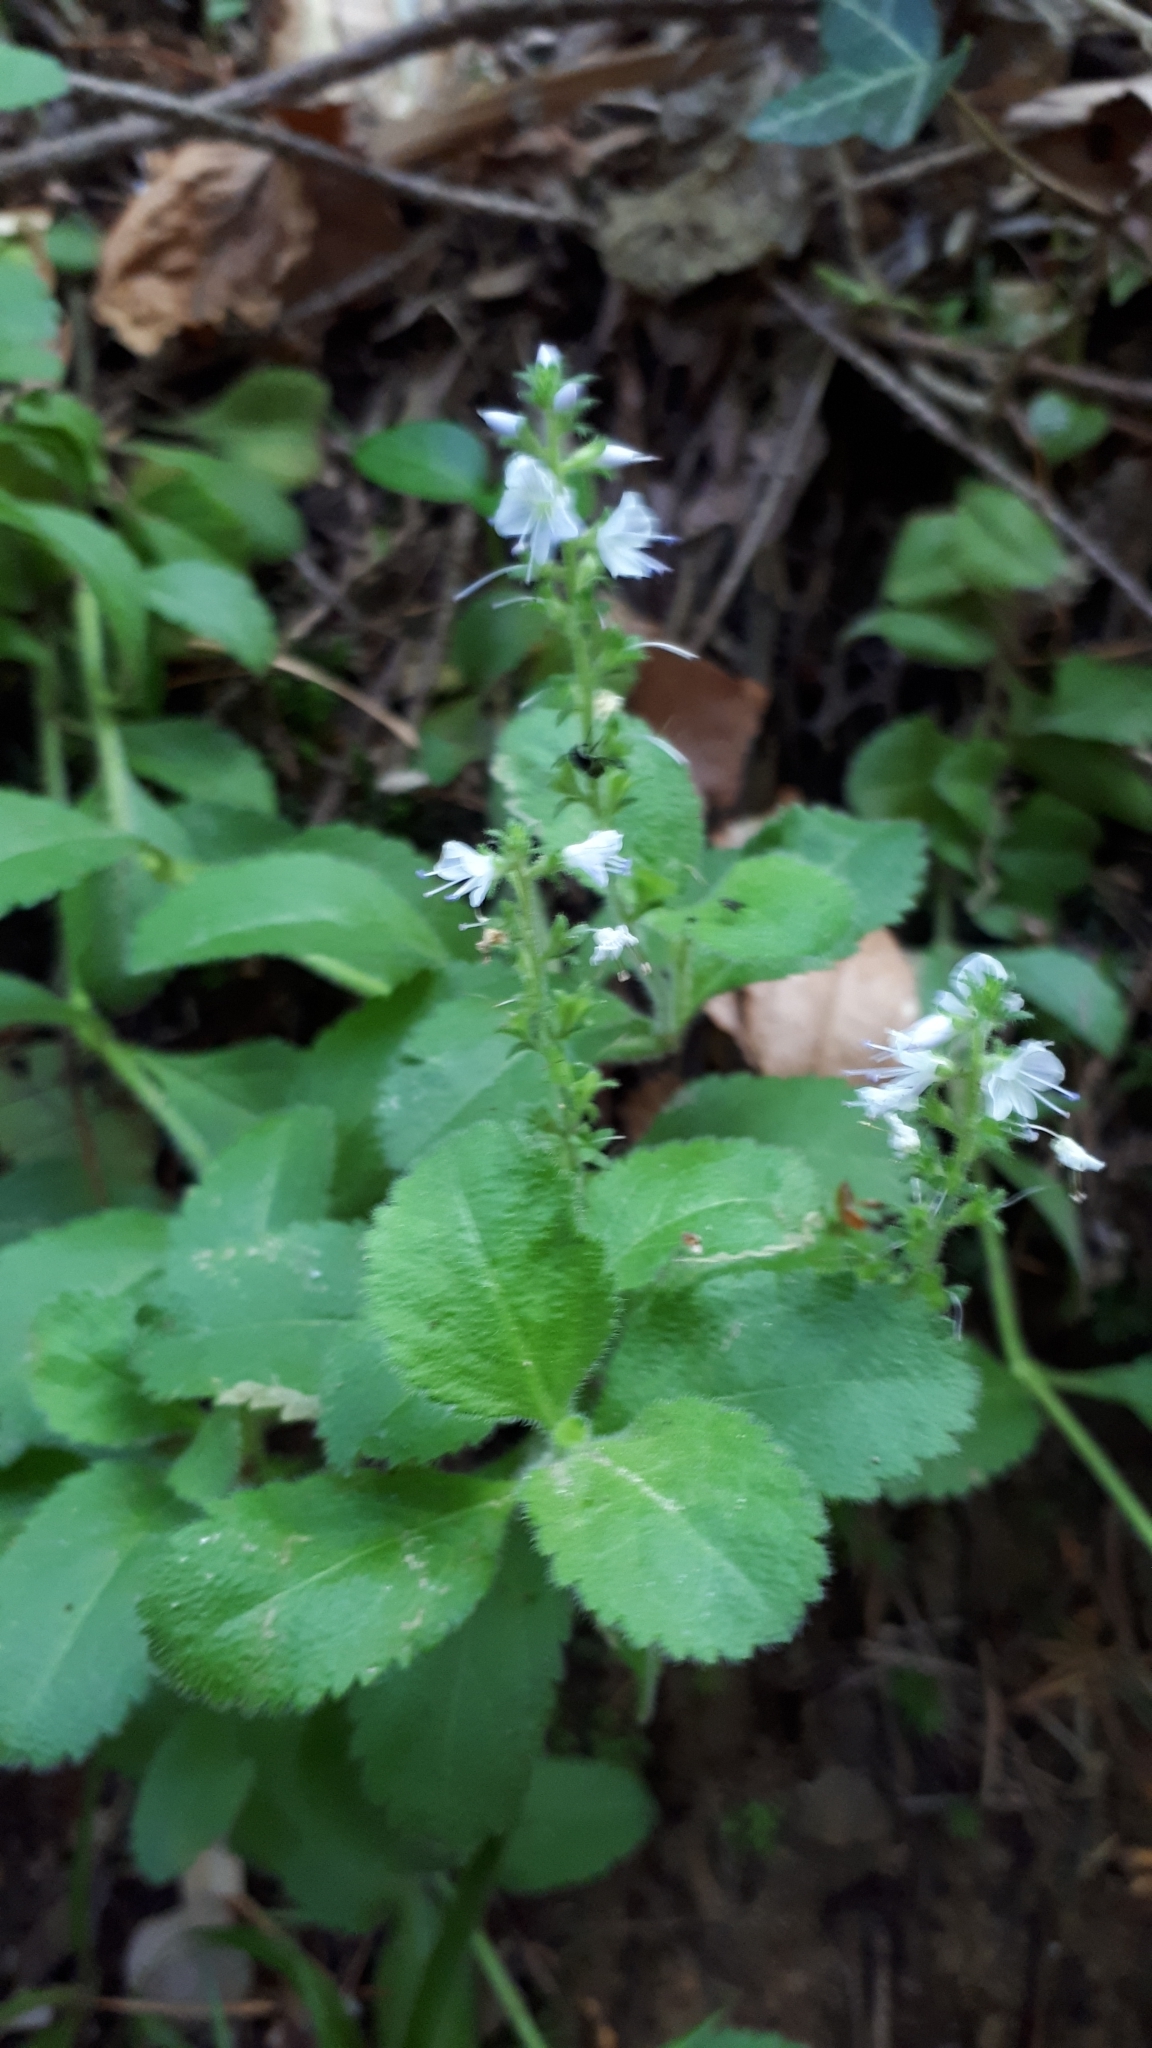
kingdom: Plantae
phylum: Tracheophyta
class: Magnoliopsida
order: Lamiales
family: Plantaginaceae
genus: Veronica
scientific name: Veronica officinalis
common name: Common speedwell
